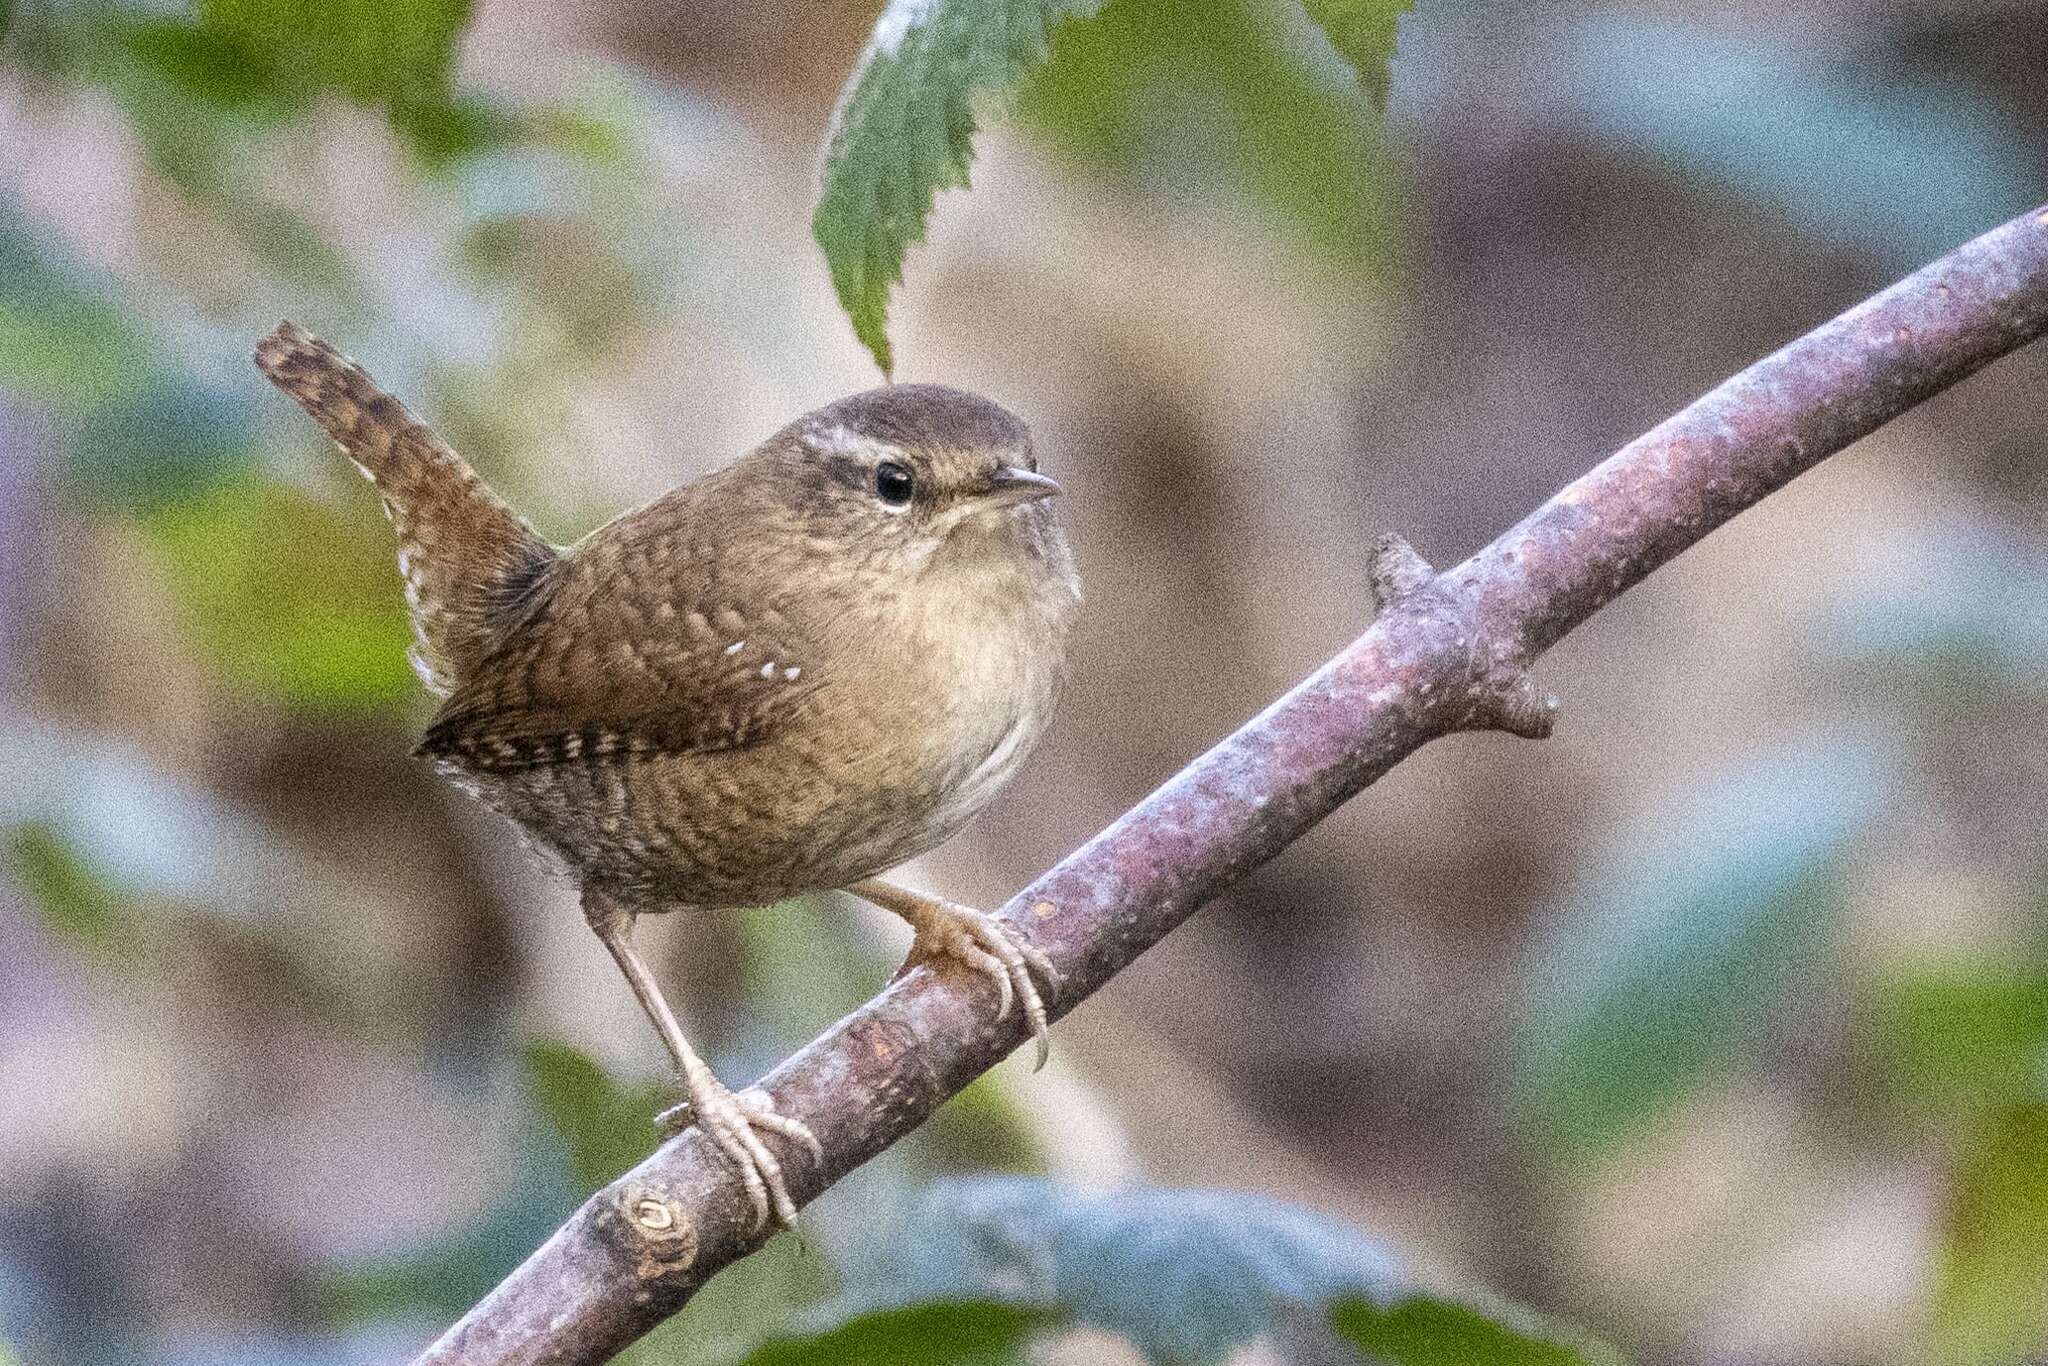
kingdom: Animalia
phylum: Chordata
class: Aves
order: Passeriformes
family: Troglodytidae
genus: Troglodytes
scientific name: Troglodytes troglodytes
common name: Eurasian wren
